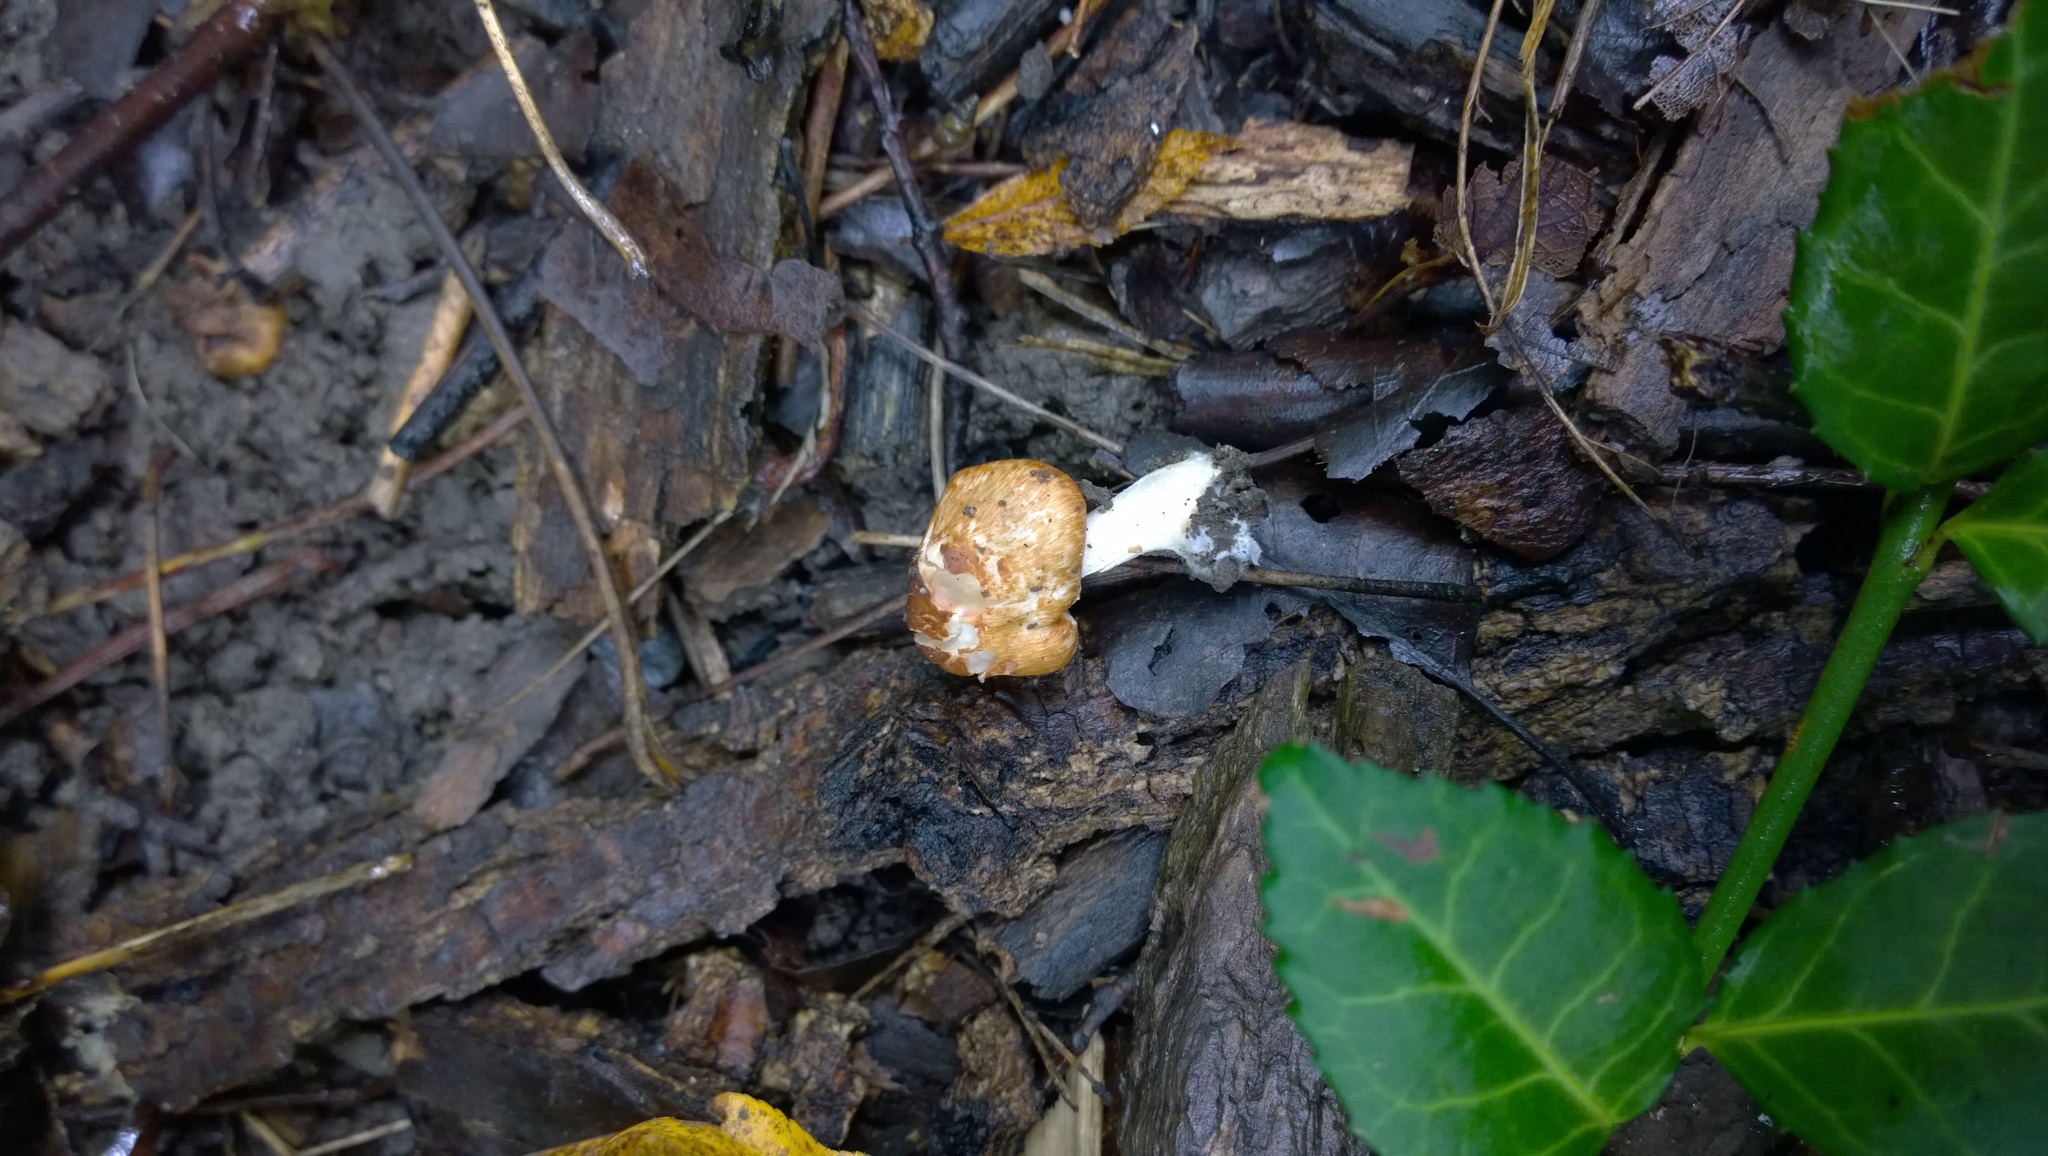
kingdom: Fungi
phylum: Basidiomycota
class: Agaricomycetes
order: Agaricales
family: Inocybaceae
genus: Inocybe
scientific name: Inocybe fraudans
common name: Pear fibrecap
